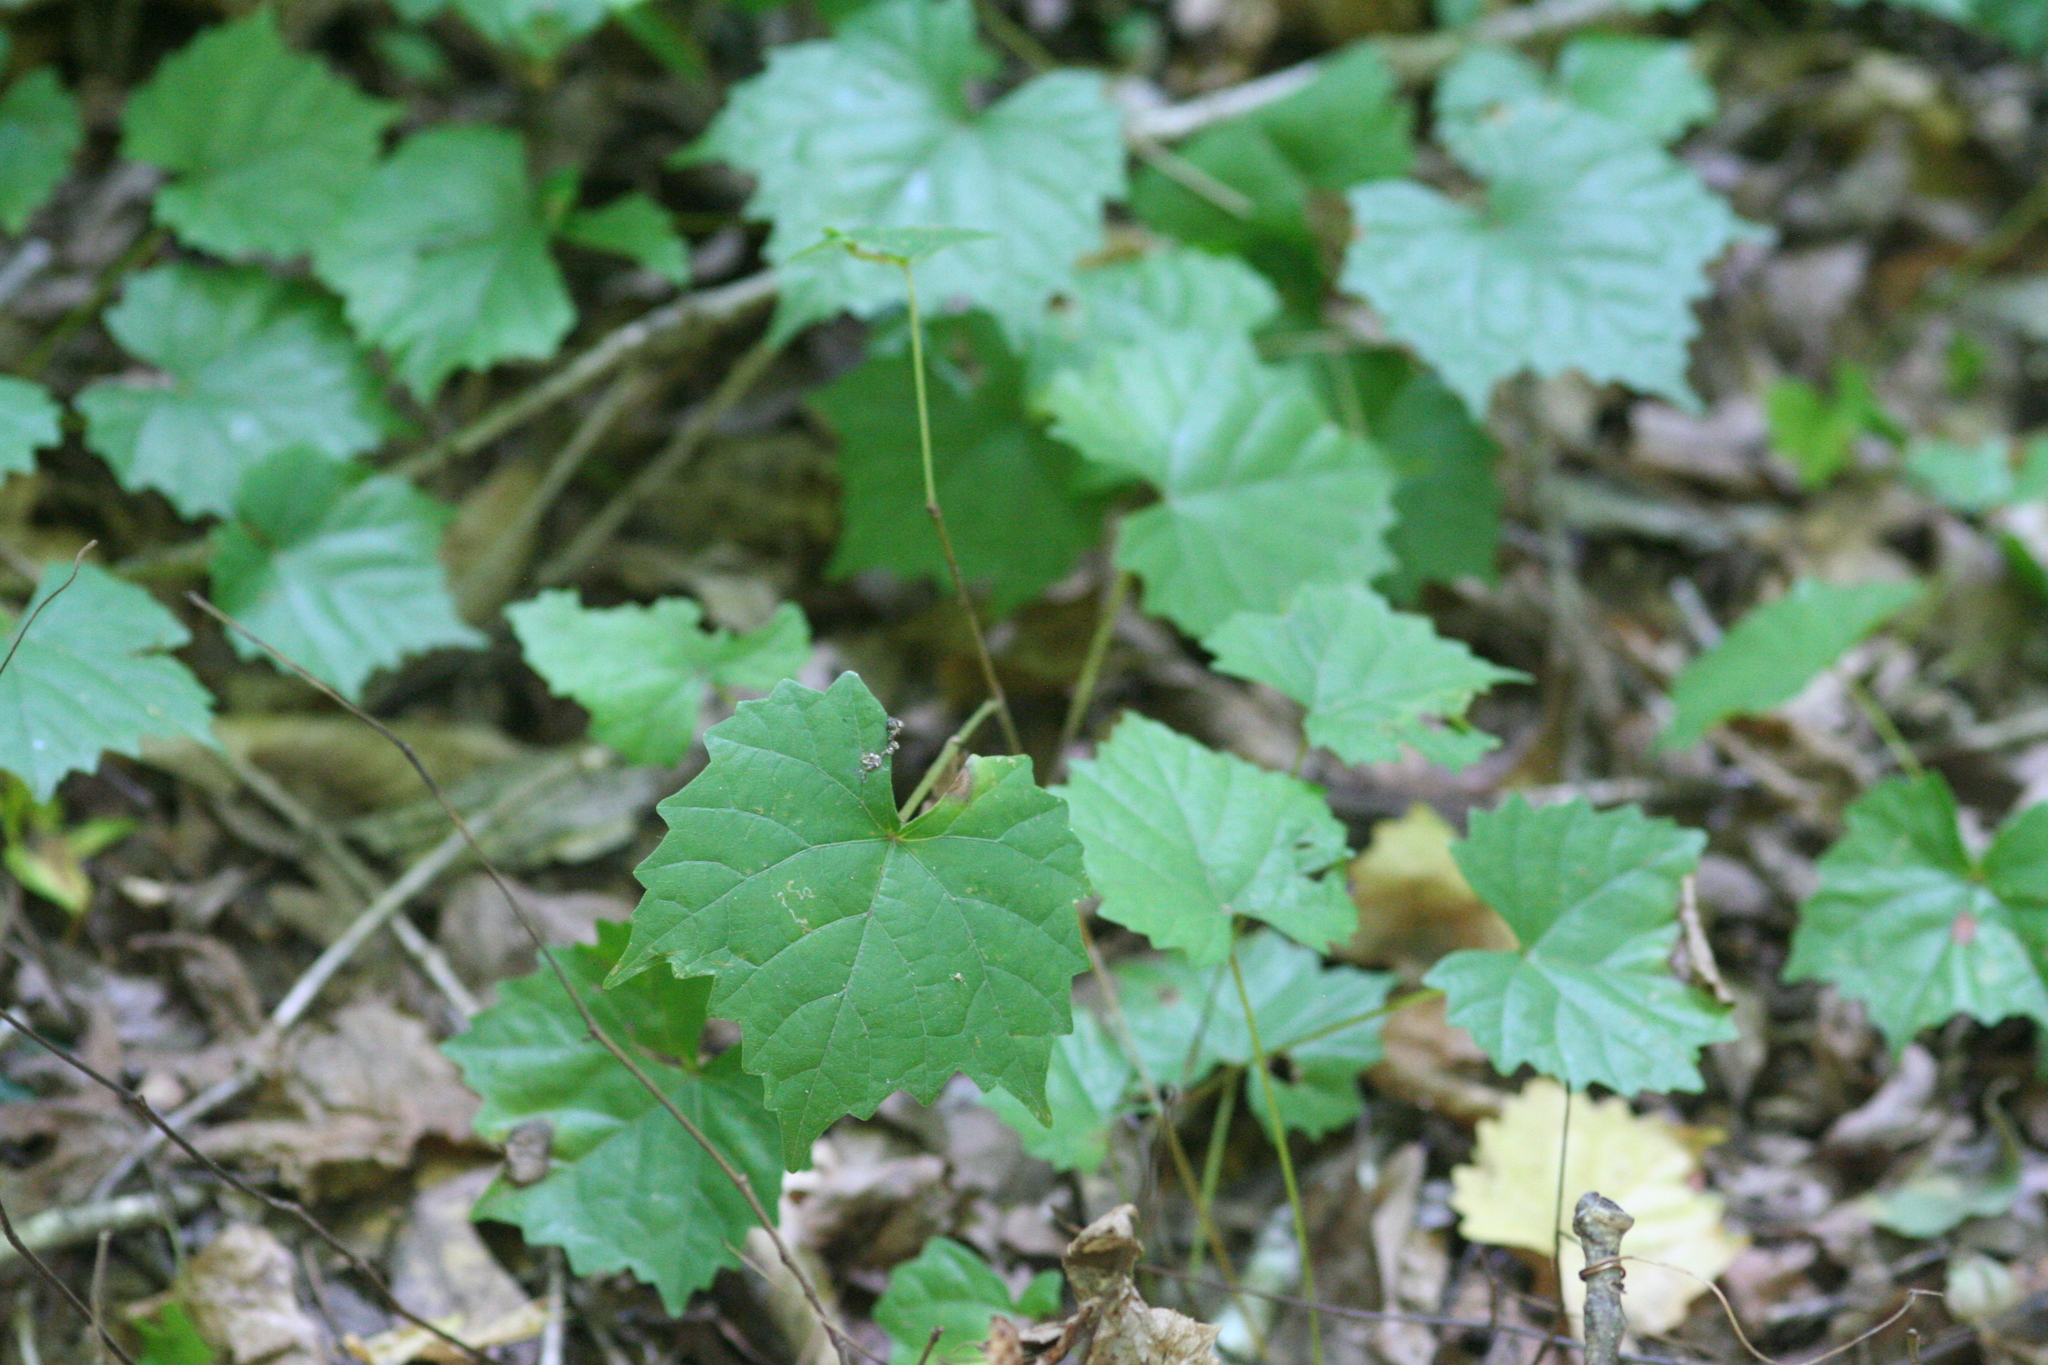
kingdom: Plantae
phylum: Tracheophyta
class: Magnoliopsida
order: Vitales
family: Vitaceae
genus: Vitis
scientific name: Vitis rotundifolia
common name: Muscadine grape
